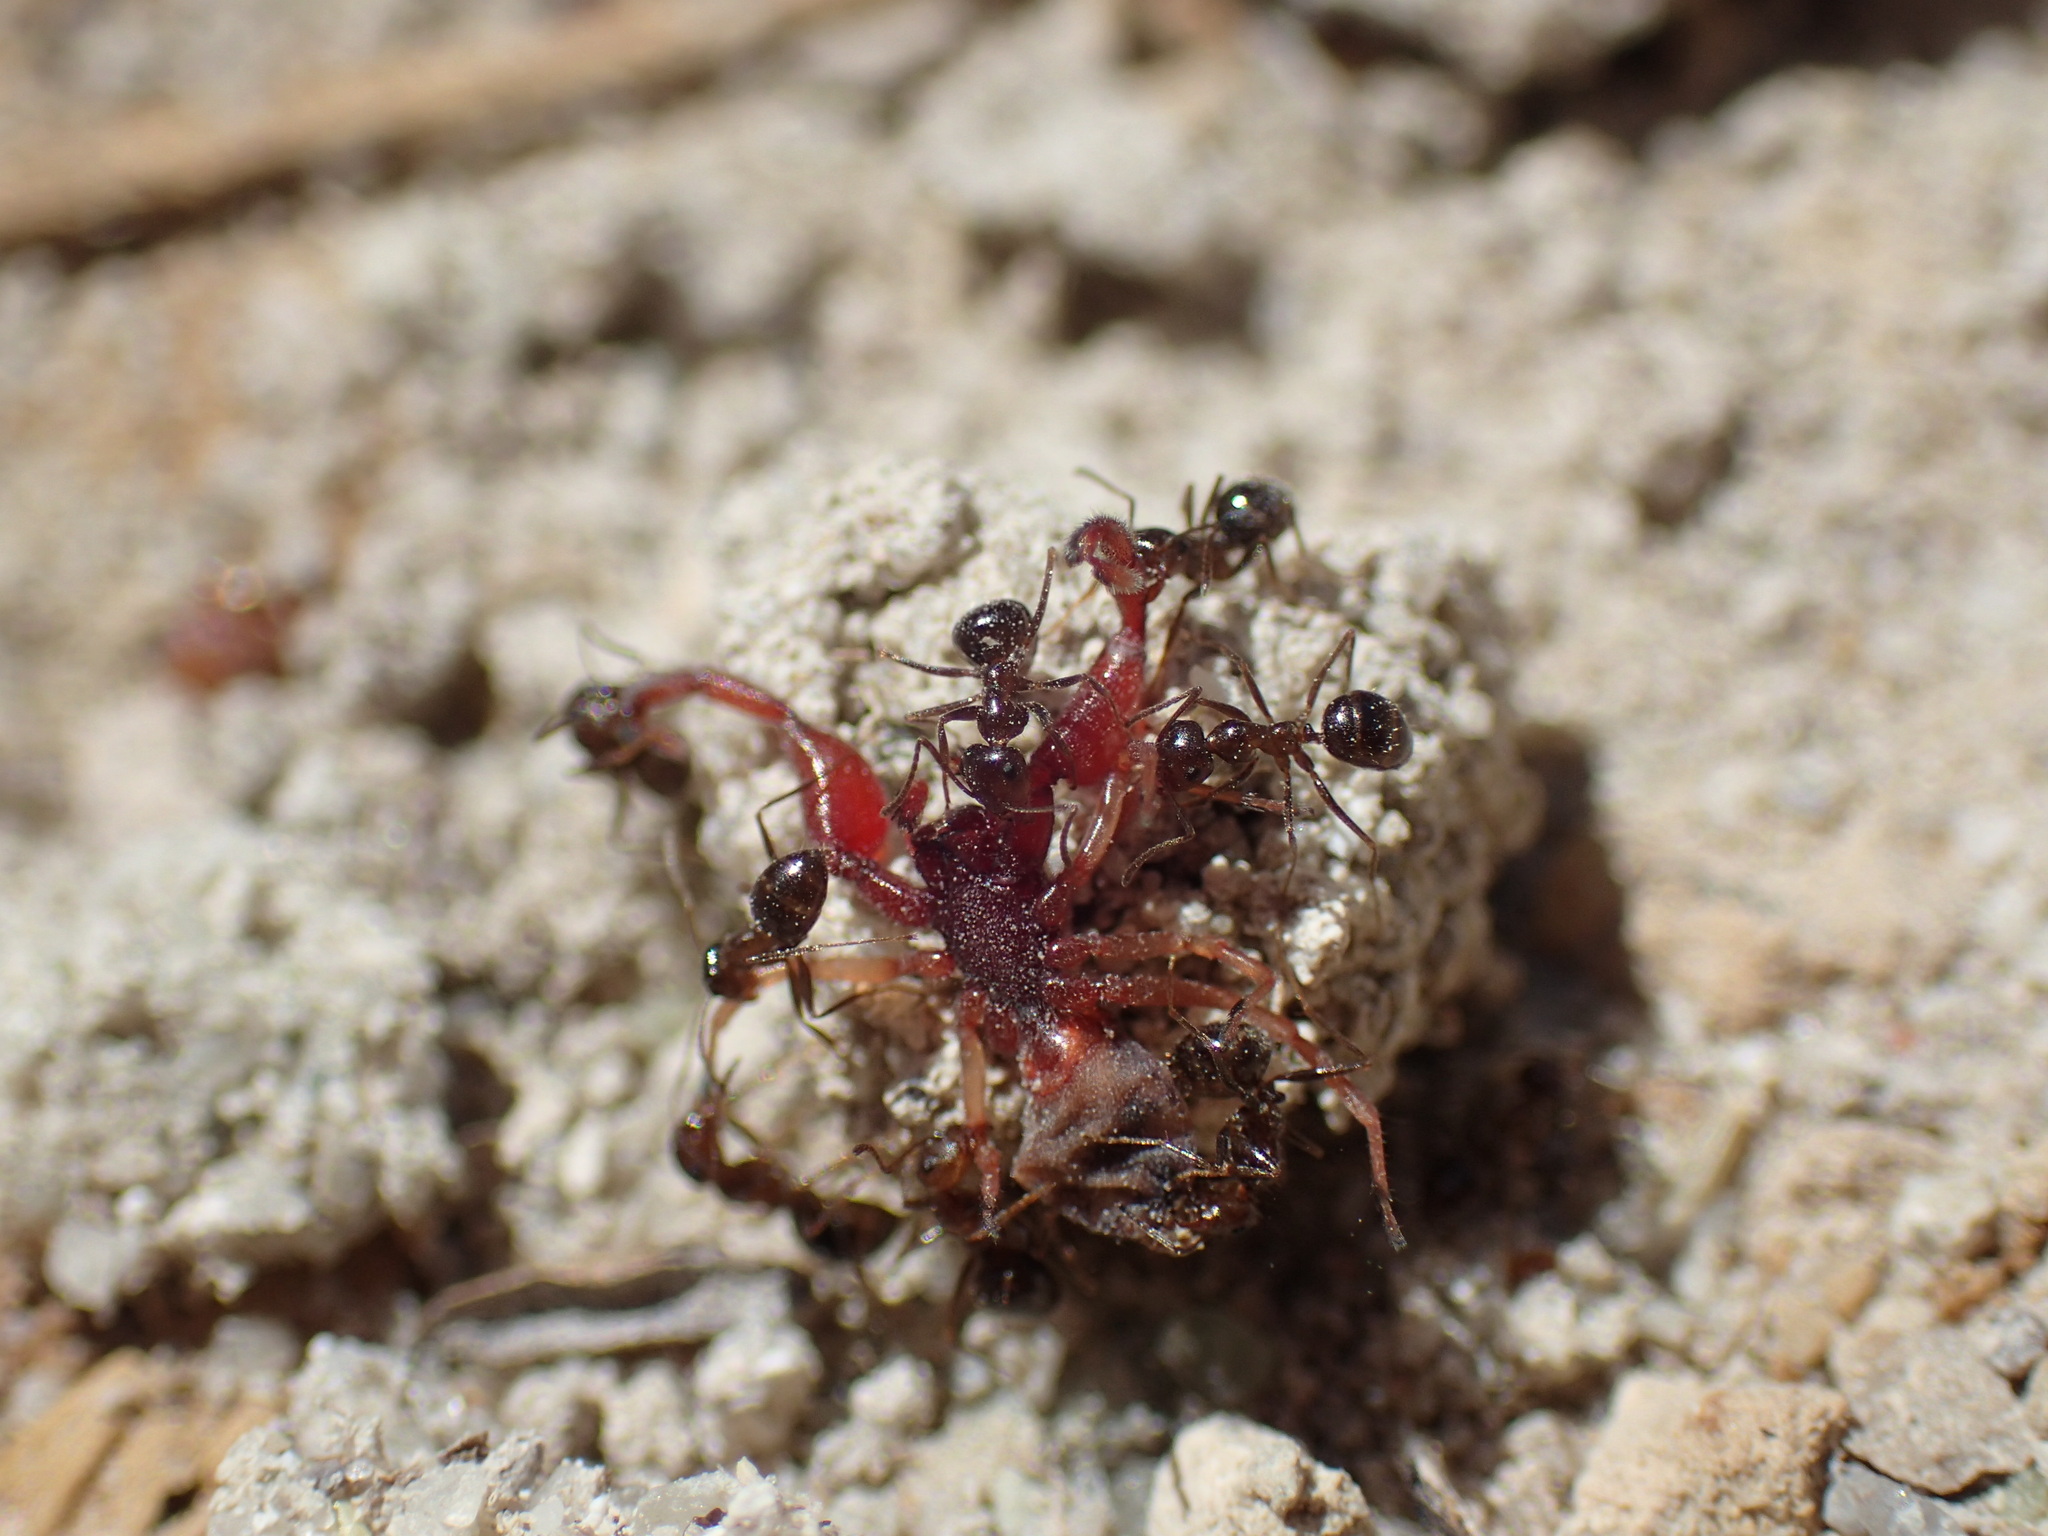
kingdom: Animalia
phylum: Arthropoda
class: Insecta
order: Hymenoptera
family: Formicidae
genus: Anoplolepis
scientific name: Anoplolepis steingroeveri
